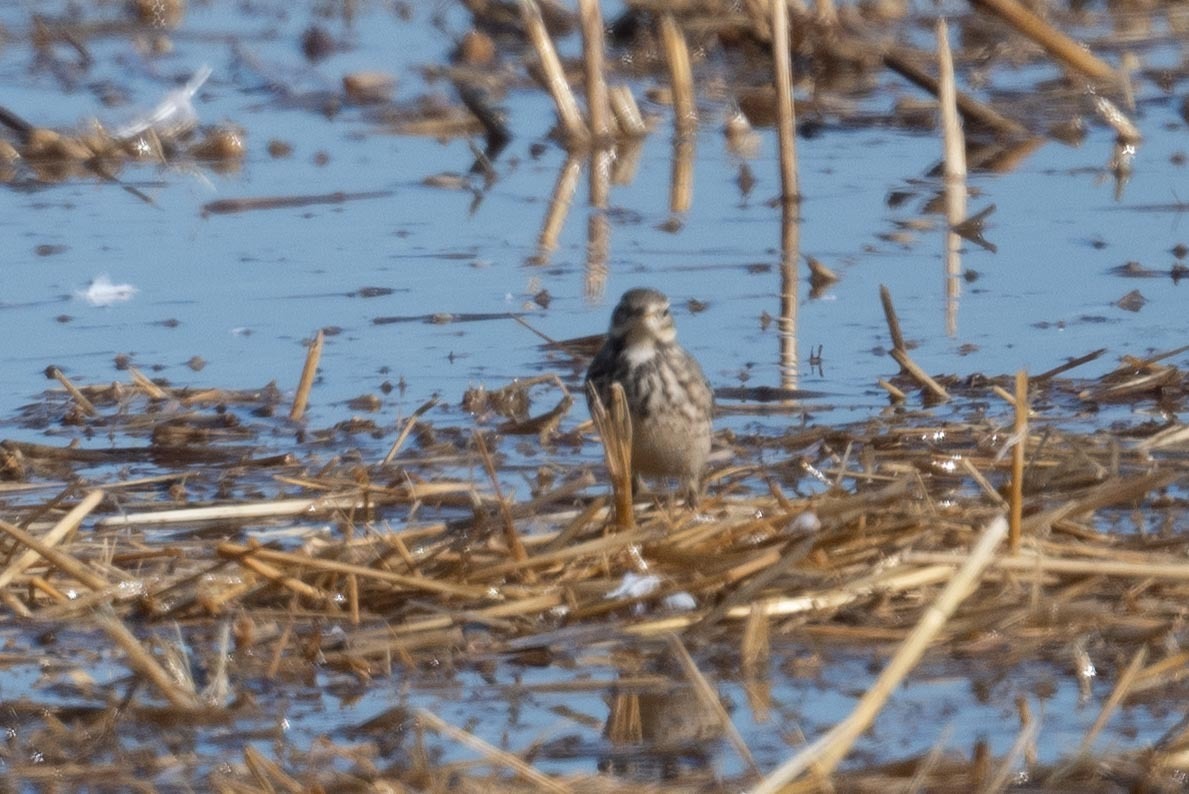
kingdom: Animalia
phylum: Chordata
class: Aves
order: Passeriformes
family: Motacillidae
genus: Anthus
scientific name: Anthus rubescens
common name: Buff-bellied pipit
